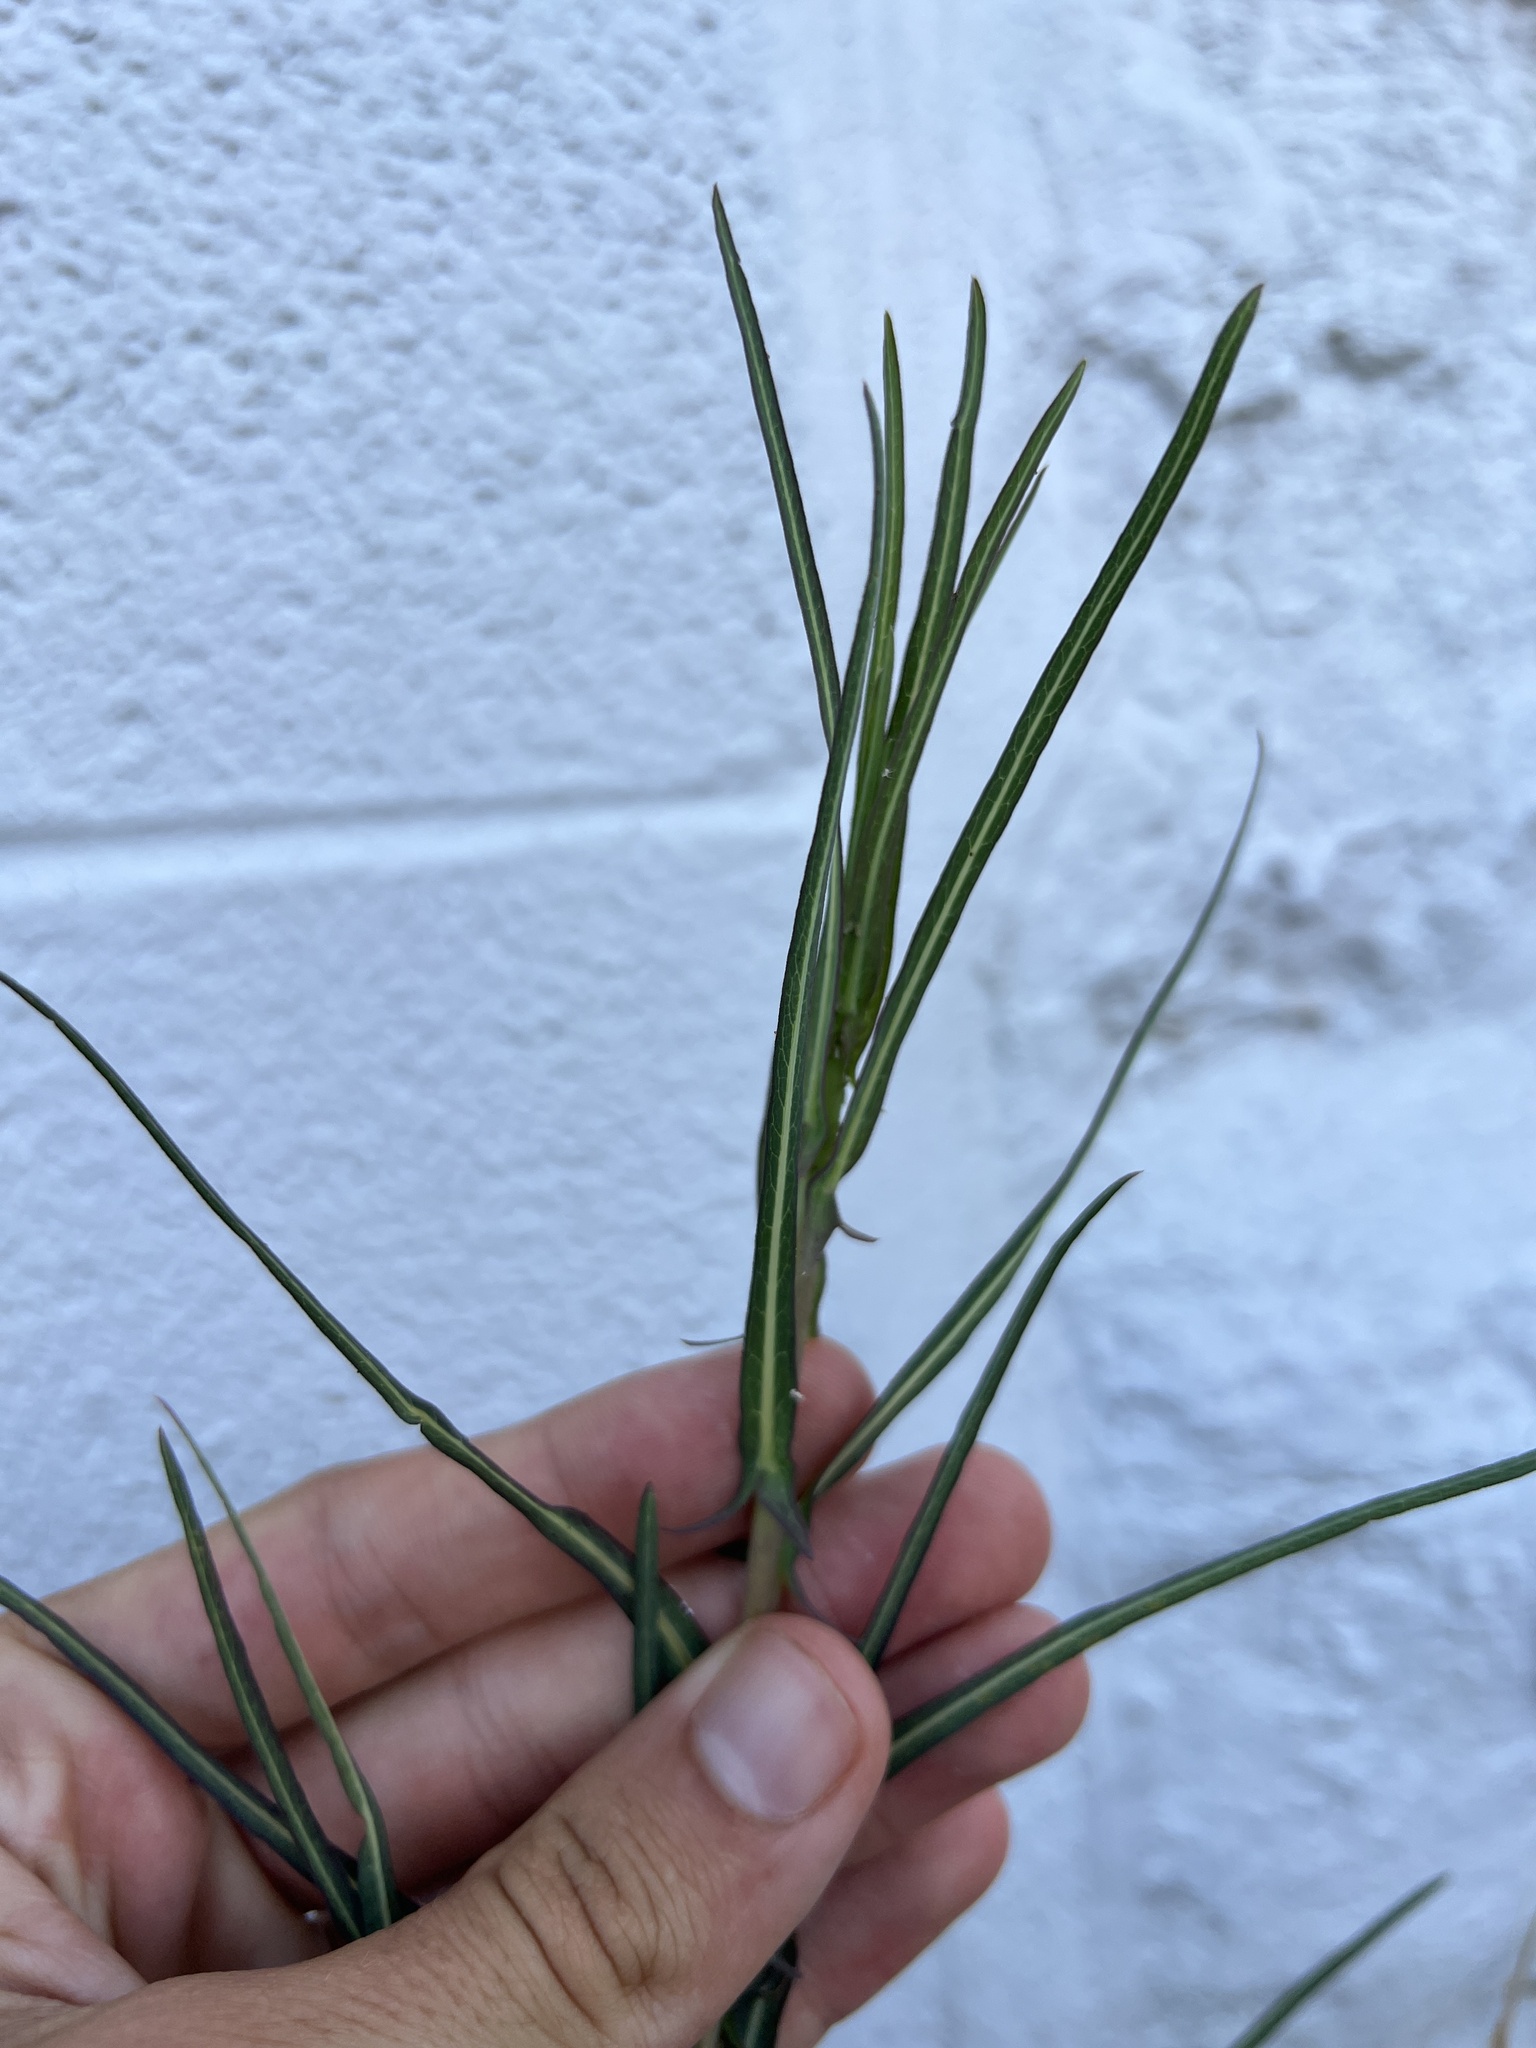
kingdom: Plantae
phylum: Tracheophyta
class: Magnoliopsida
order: Asterales
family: Asteraceae
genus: Lactuca
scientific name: Lactuca saligna
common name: Wild lettuce
